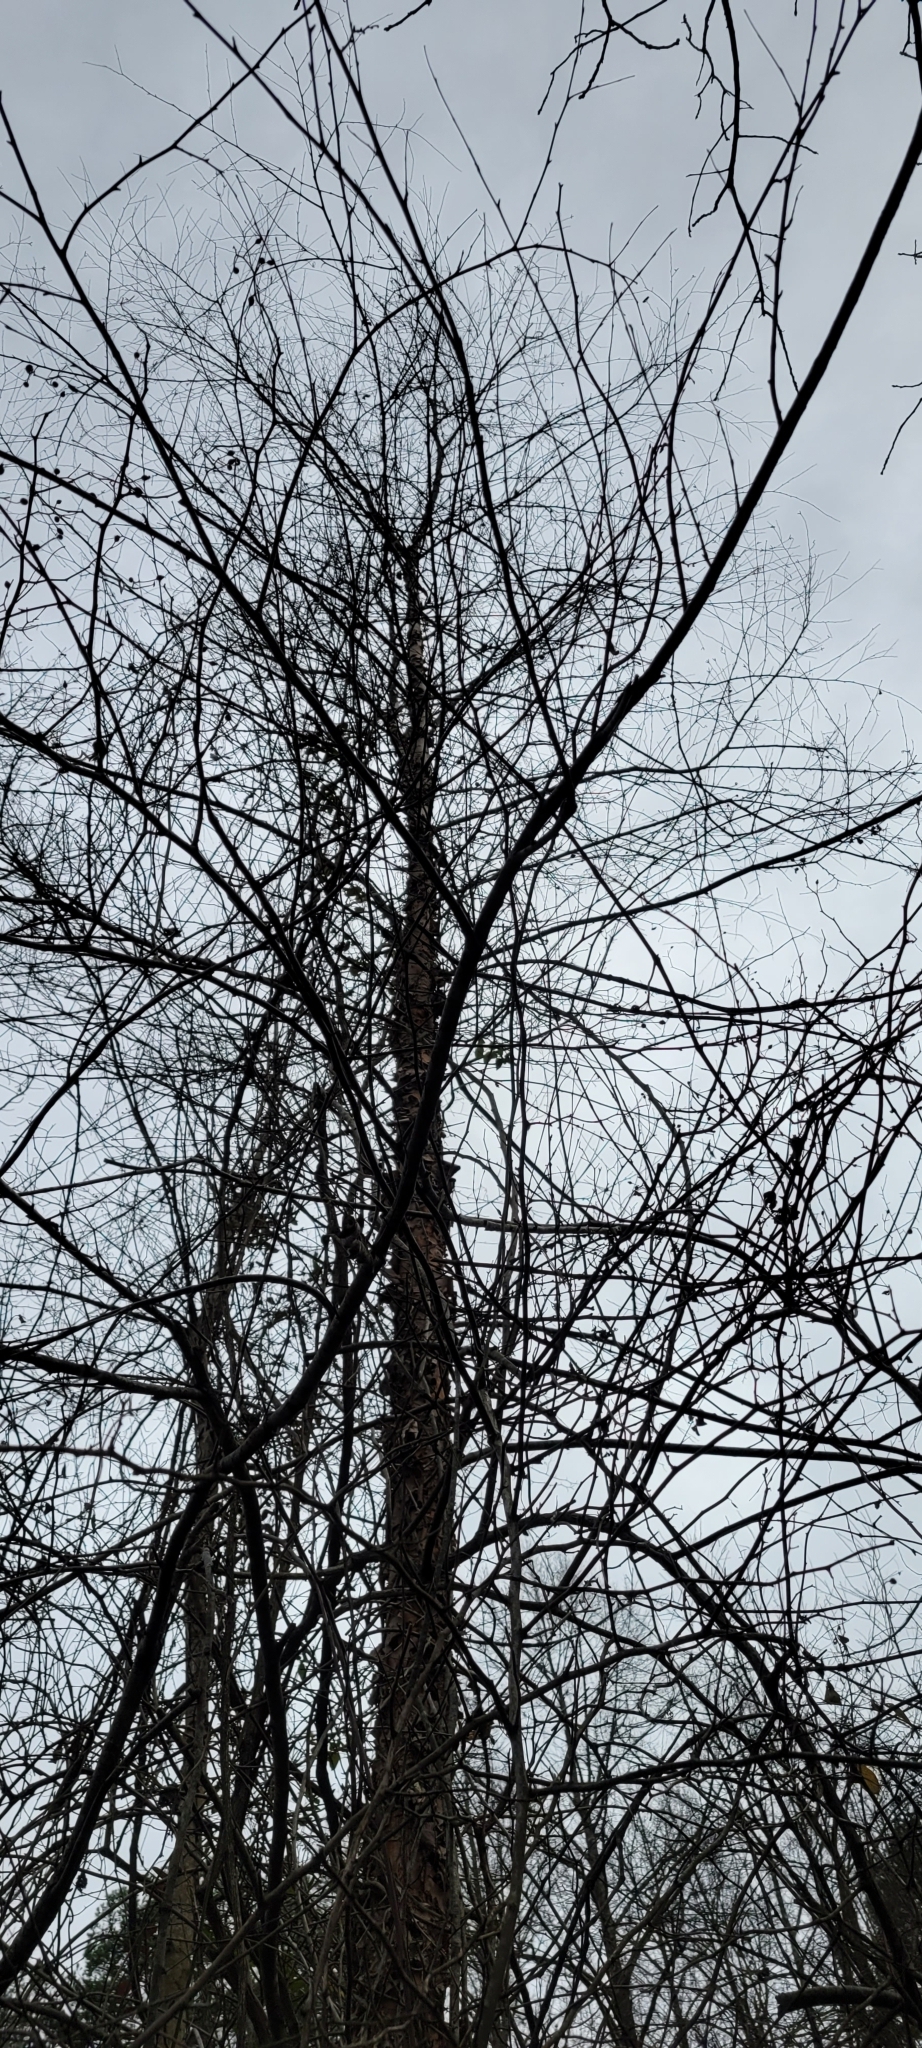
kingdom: Plantae
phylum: Tracheophyta
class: Magnoliopsida
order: Fagales
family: Betulaceae
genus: Betula
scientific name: Betula nigra
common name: Black birch
